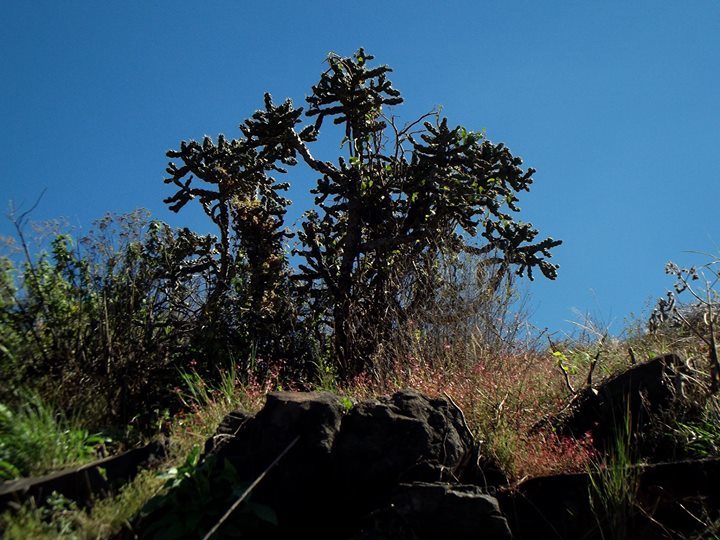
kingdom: Plantae
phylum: Tracheophyta
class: Magnoliopsida
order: Caryophyllales
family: Cactaceae
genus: Cylindropuntia
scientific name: Cylindropuntia imbricata
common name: Candelabrum cactus
